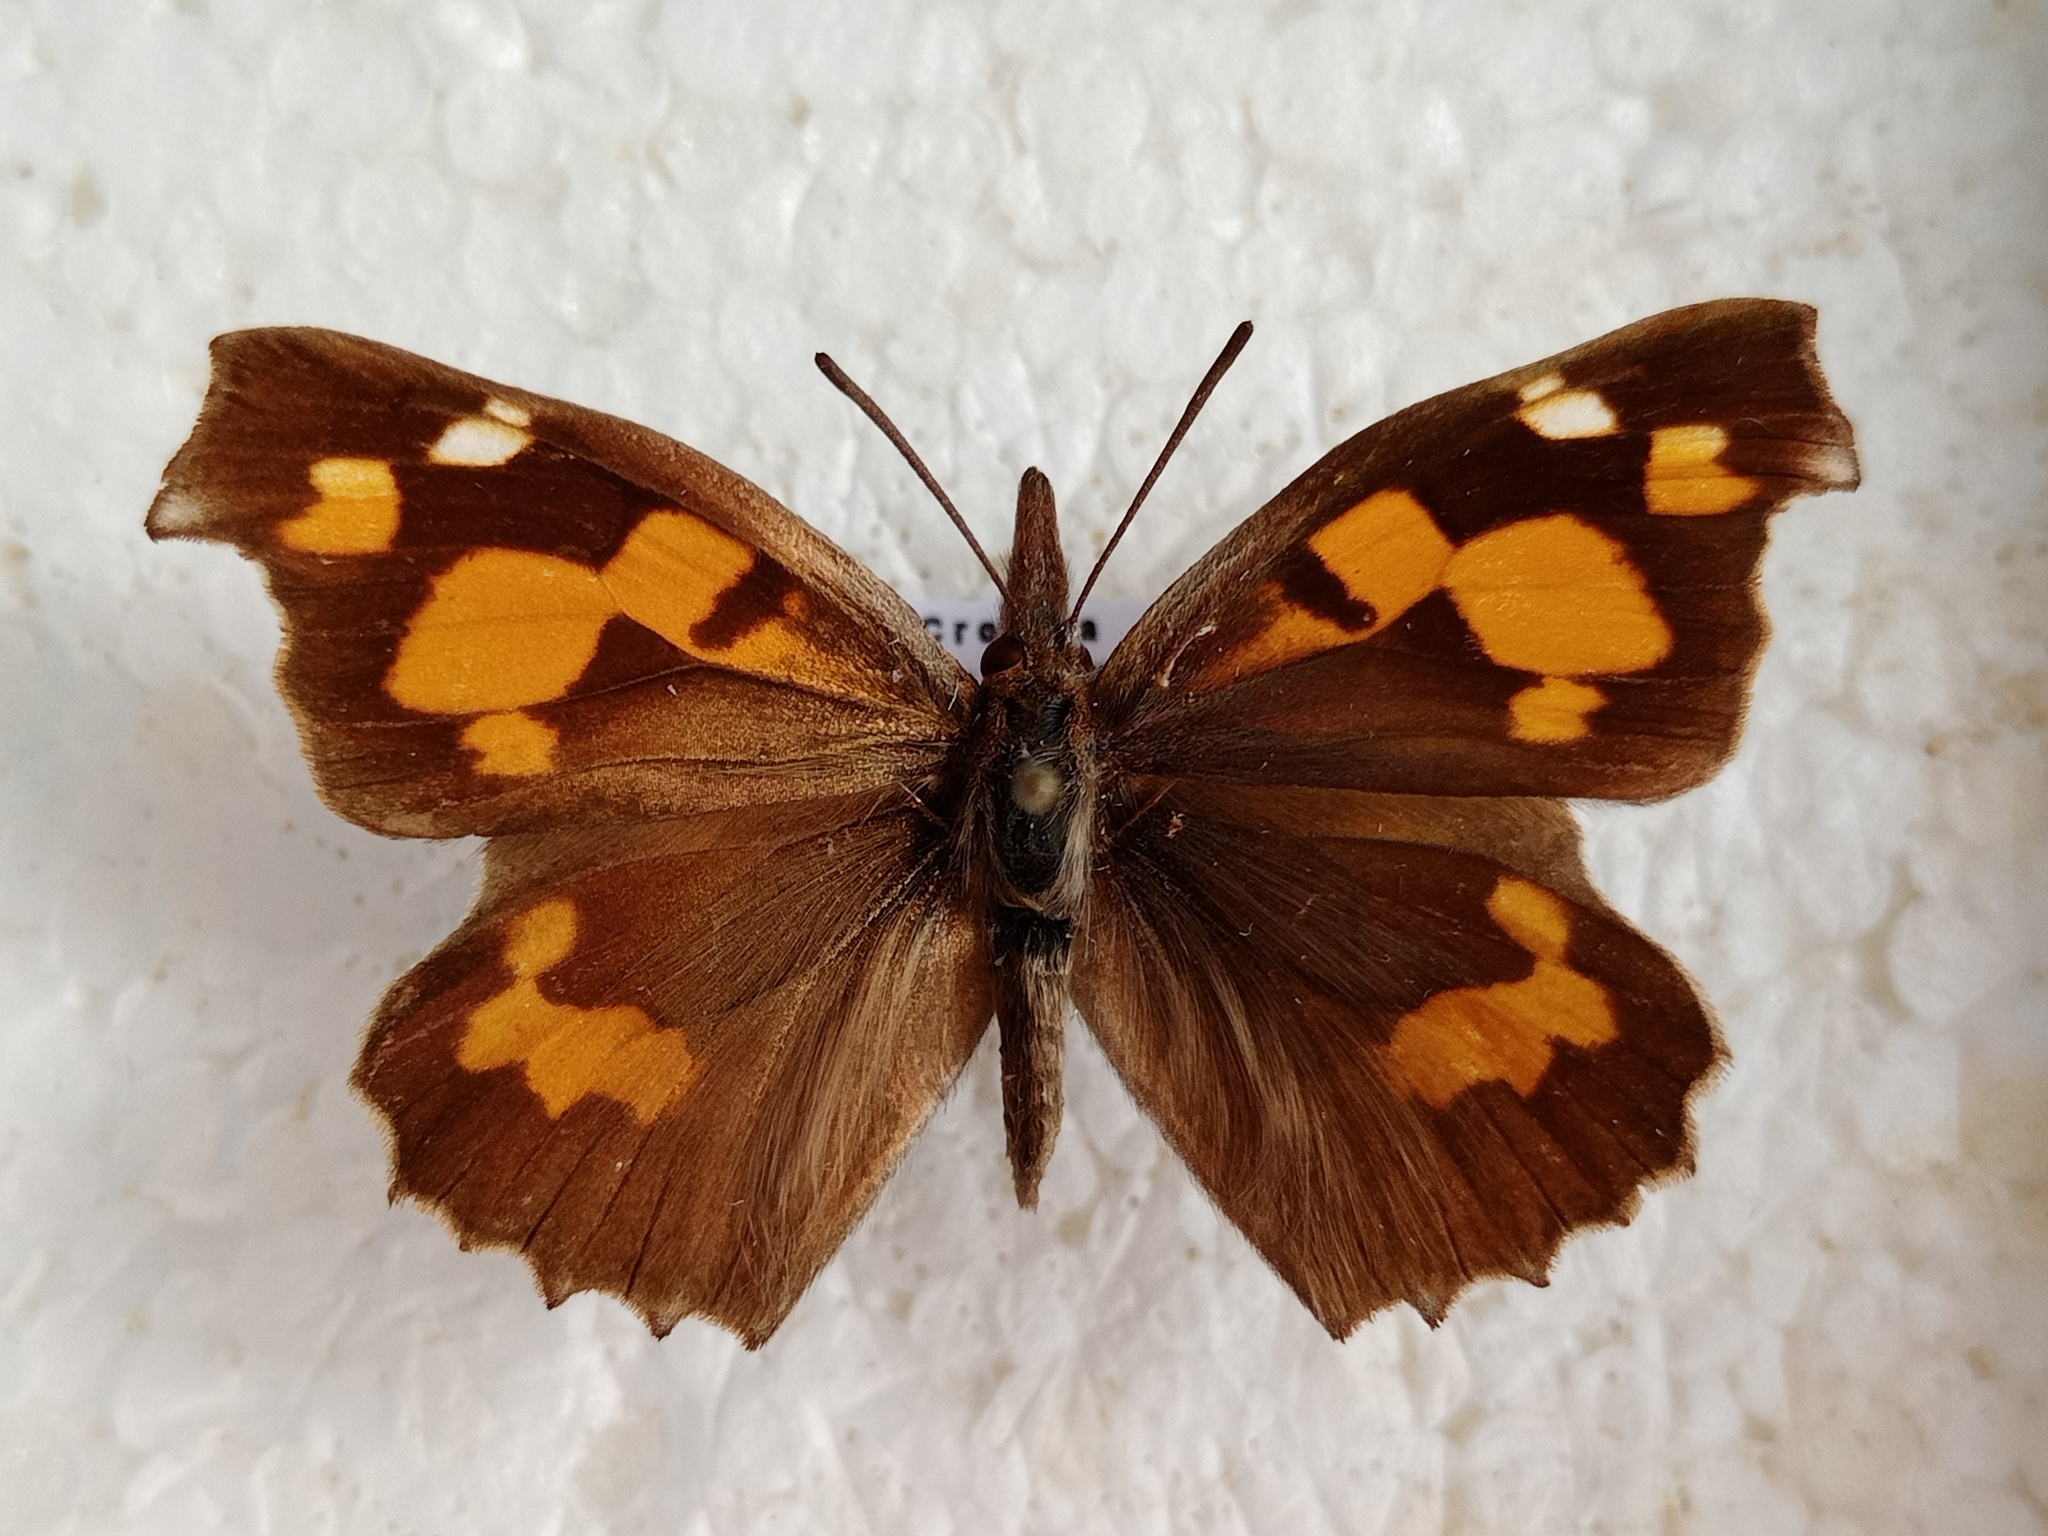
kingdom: Animalia
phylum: Arthropoda
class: Insecta
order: Lepidoptera
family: Nymphalidae
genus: Libythea
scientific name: Libythea celtis
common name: Nettle-tree butterfly
